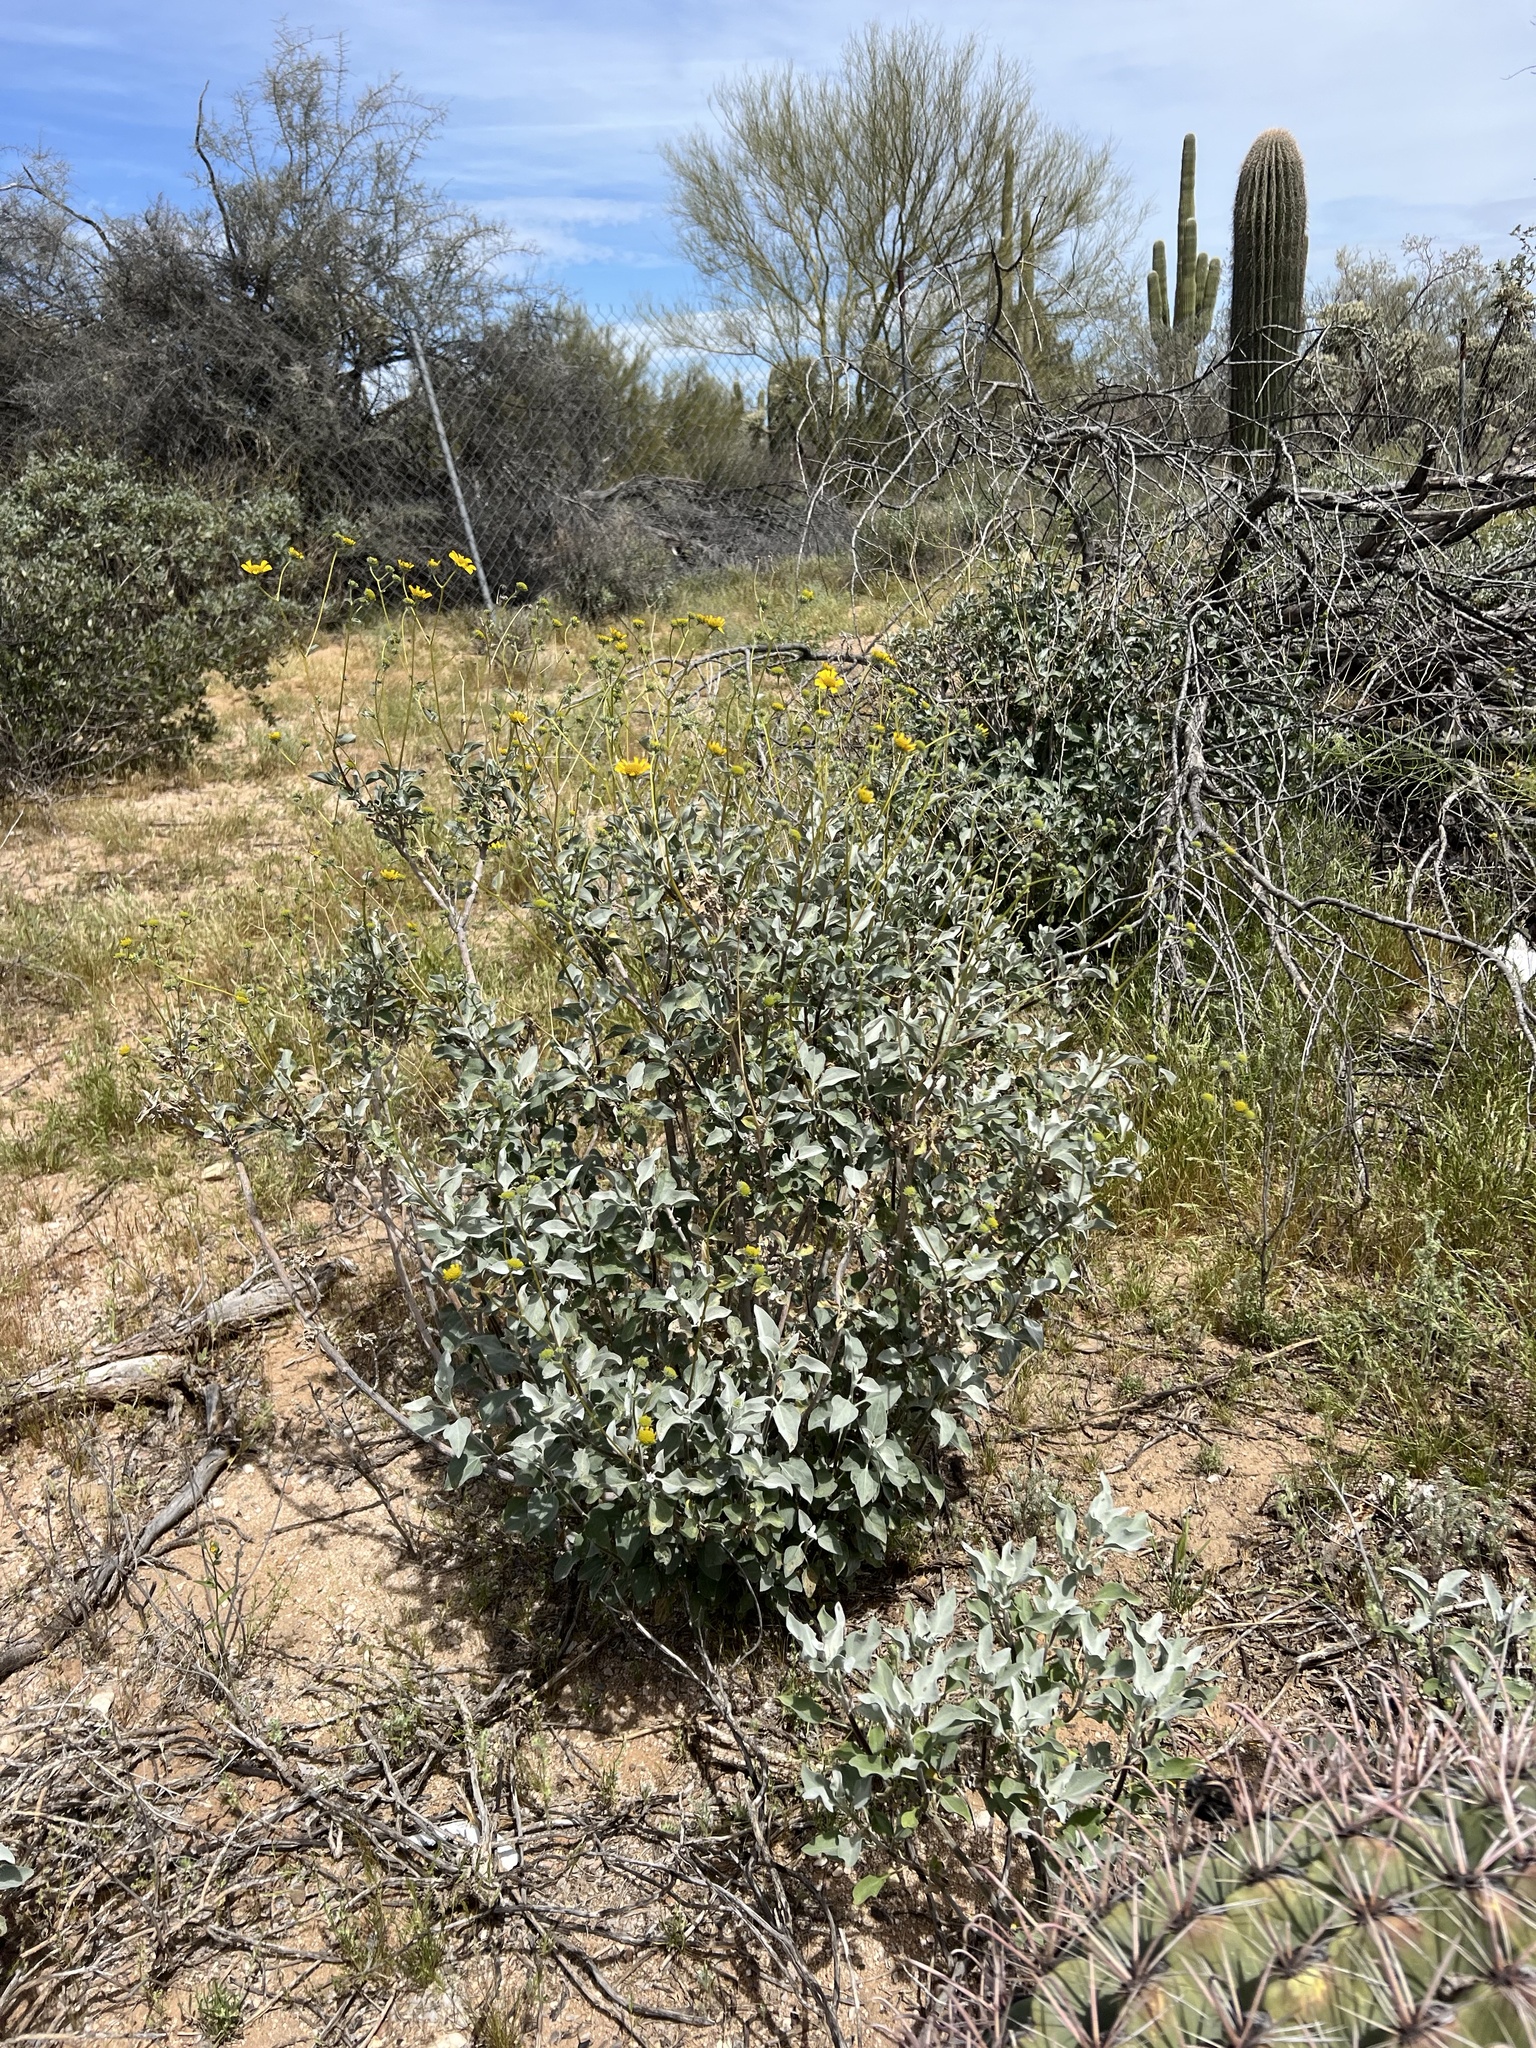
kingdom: Plantae
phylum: Tracheophyta
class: Magnoliopsida
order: Asterales
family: Asteraceae
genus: Encelia
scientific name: Encelia farinosa
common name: Brittlebush
